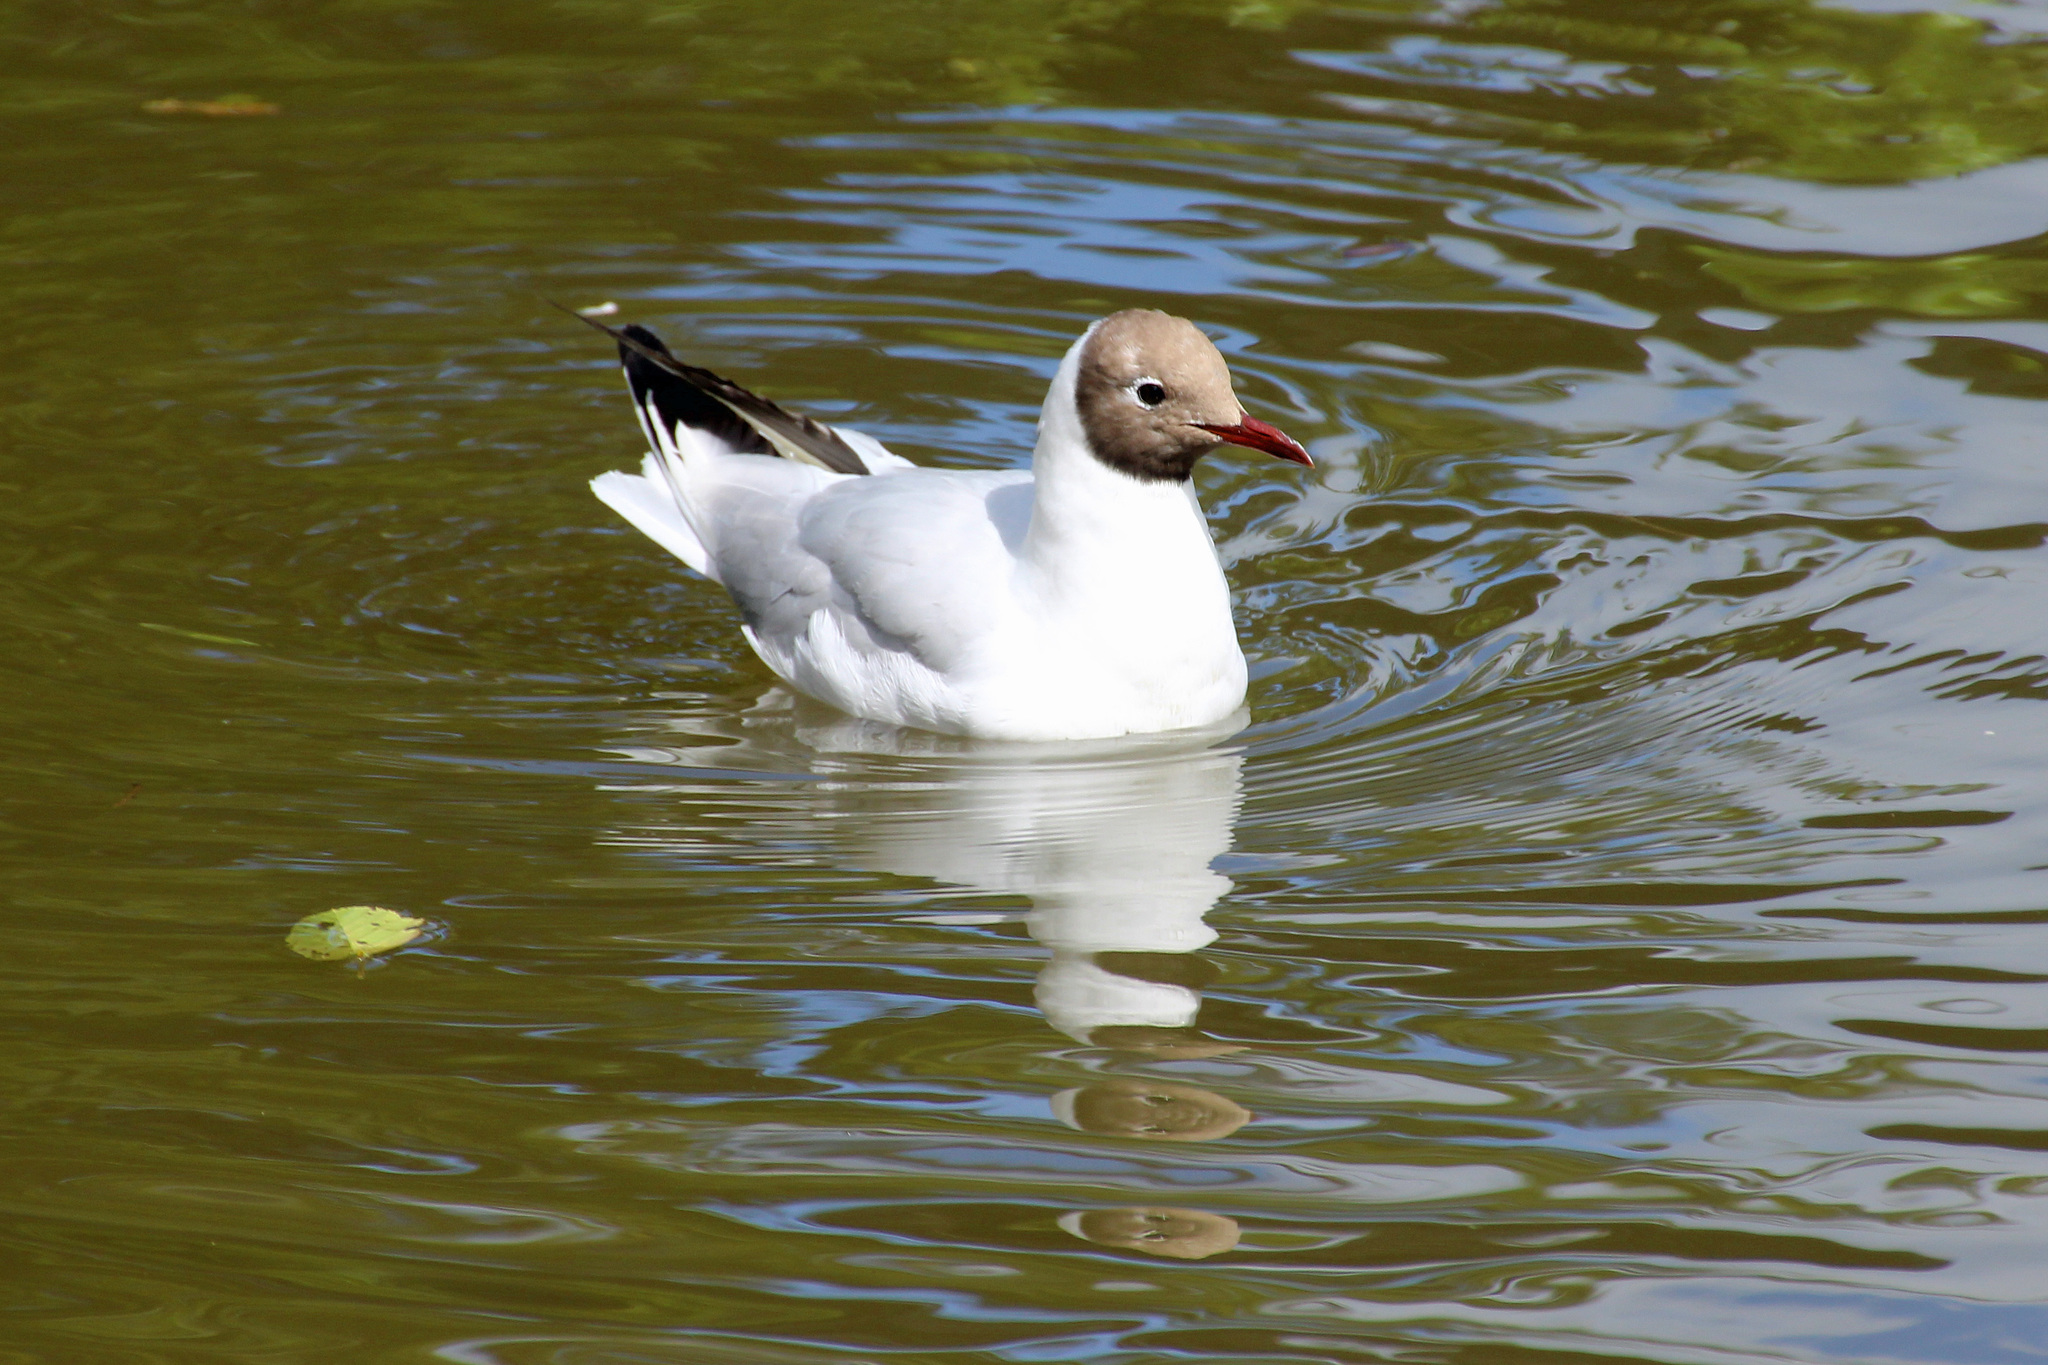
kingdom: Animalia
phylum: Chordata
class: Aves
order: Charadriiformes
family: Laridae
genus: Chroicocephalus
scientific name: Chroicocephalus ridibundus
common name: Black-headed gull
